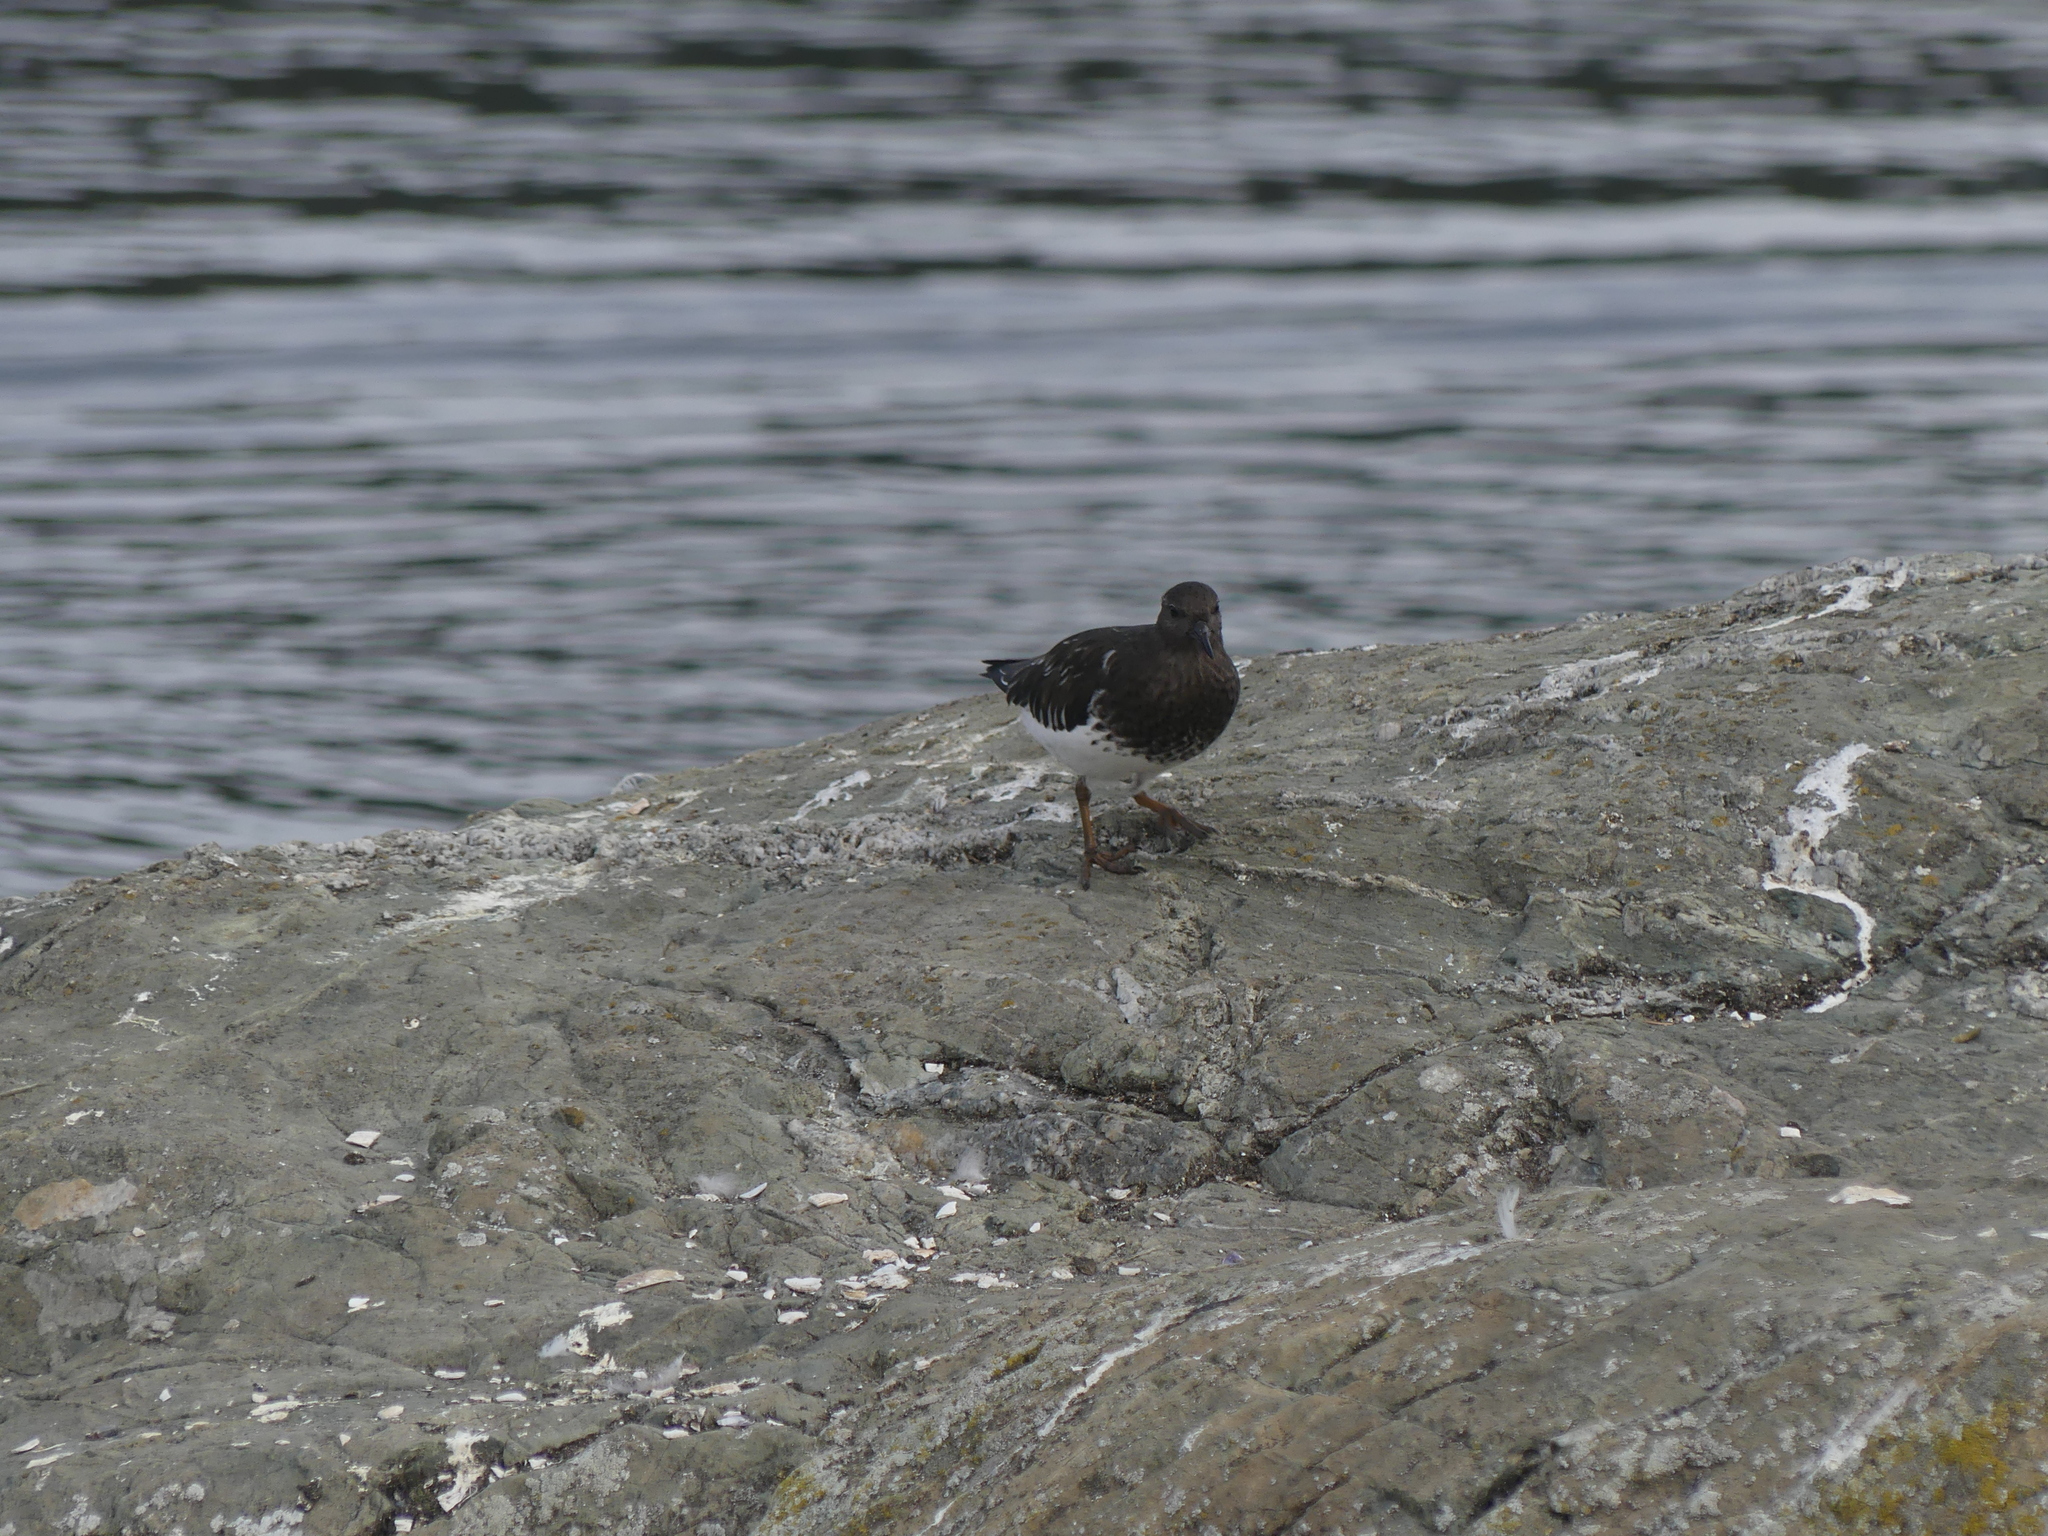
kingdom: Animalia
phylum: Chordata
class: Aves
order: Charadriiformes
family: Scolopacidae
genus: Arenaria
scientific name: Arenaria melanocephala
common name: Black turnstone
